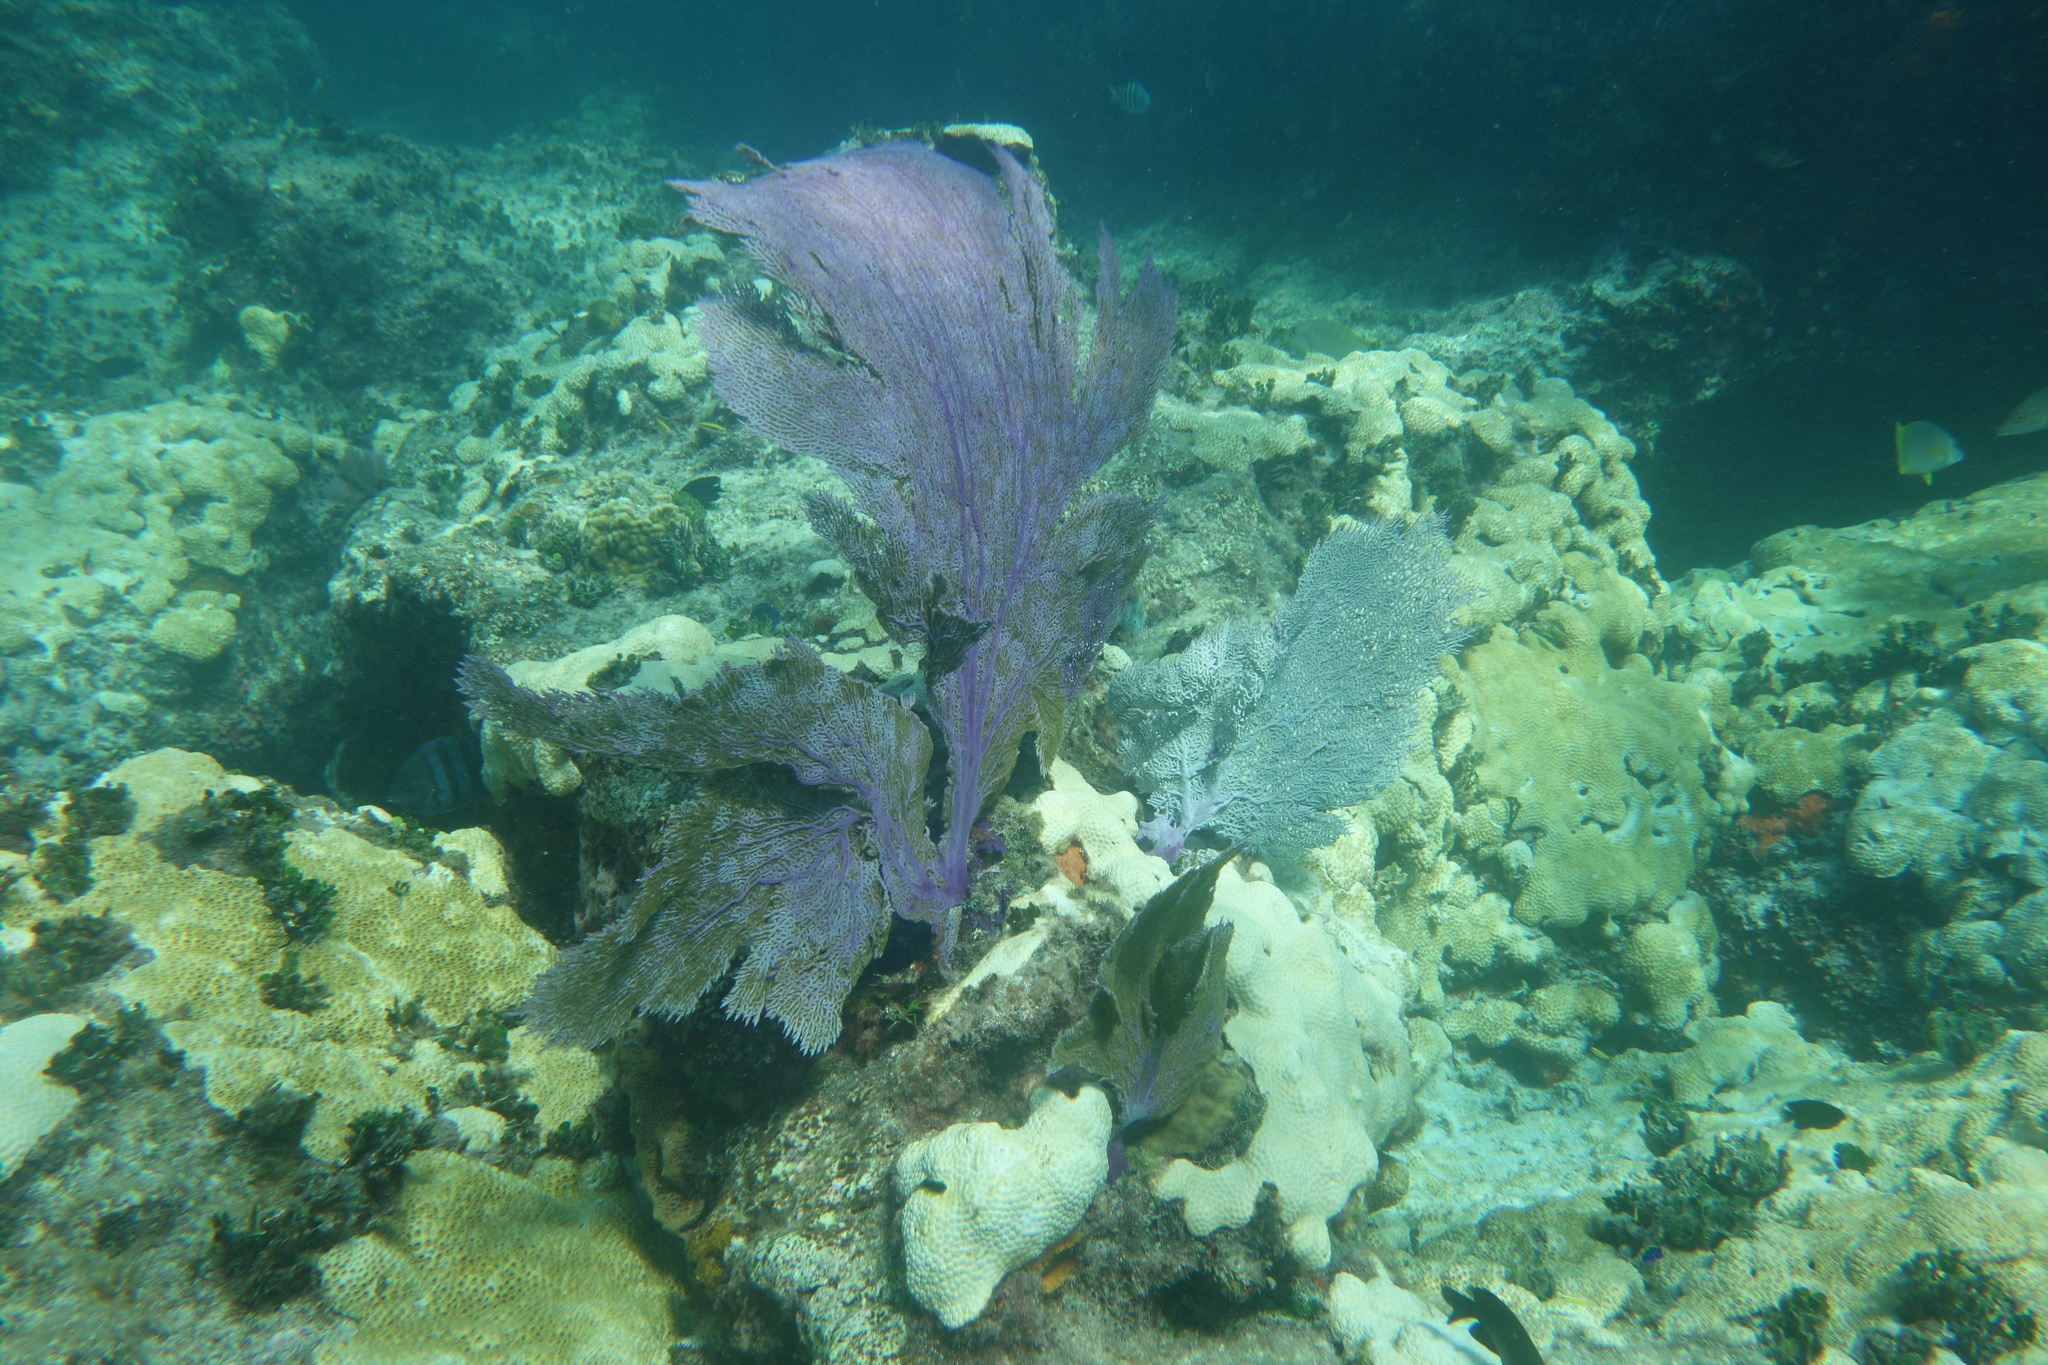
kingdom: Animalia
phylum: Cnidaria
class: Anthozoa
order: Malacalcyonacea
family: Gorgoniidae
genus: Gorgonia
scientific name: Gorgonia ventalina
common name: Common sea fan
